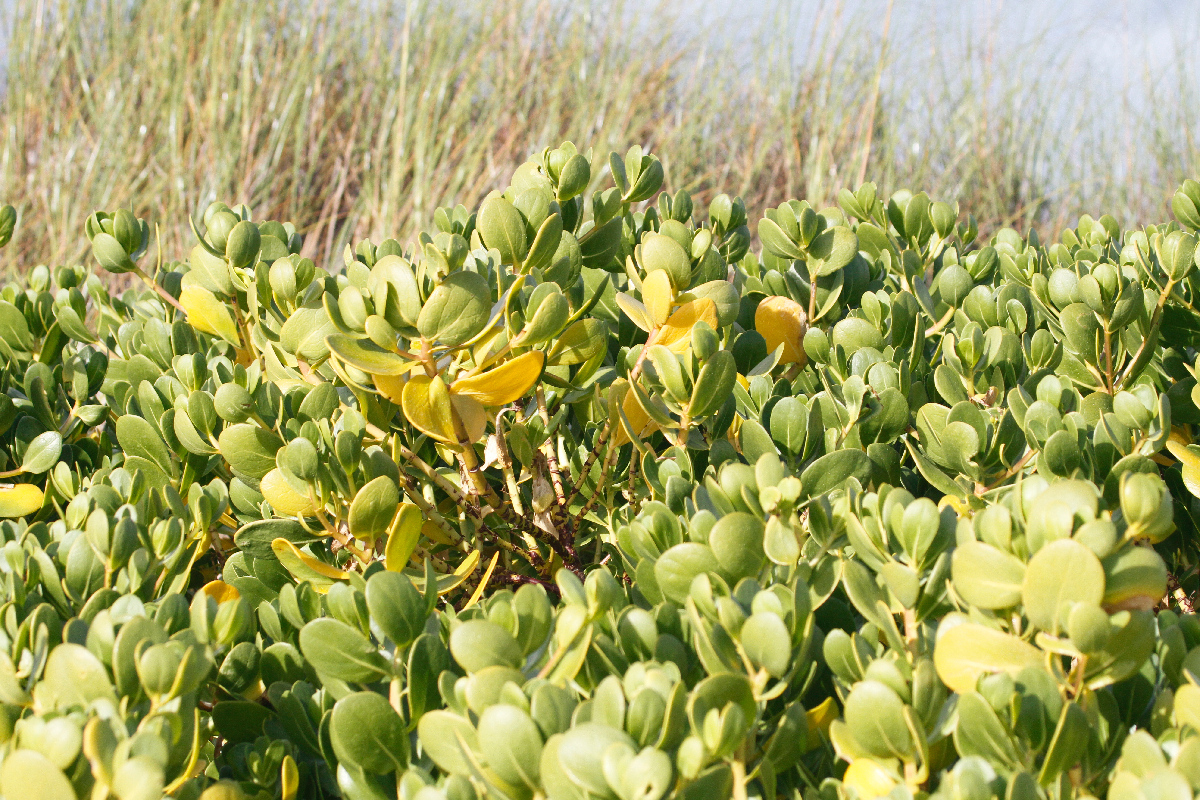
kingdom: Plantae
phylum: Tracheophyta
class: Magnoliopsida
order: Asterales
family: Goodeniaceae
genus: Scaevola
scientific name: Scaevola plumieri
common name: Gull feed
